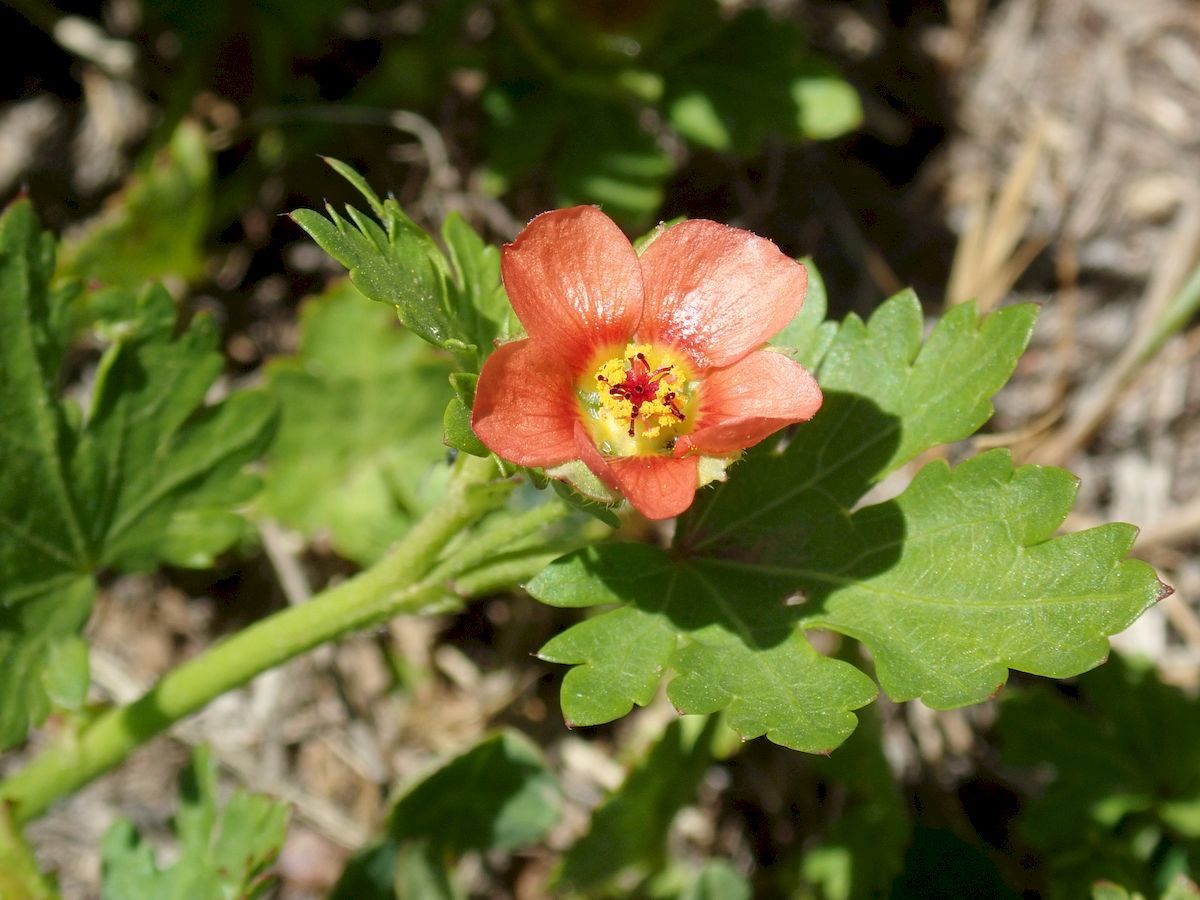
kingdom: Plantae
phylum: Tracheophyta
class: Magnoliopsida
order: Malvales
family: Malvaceae
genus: Modiola
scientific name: Modiola caroliniana
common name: Carolina bristlemallow
